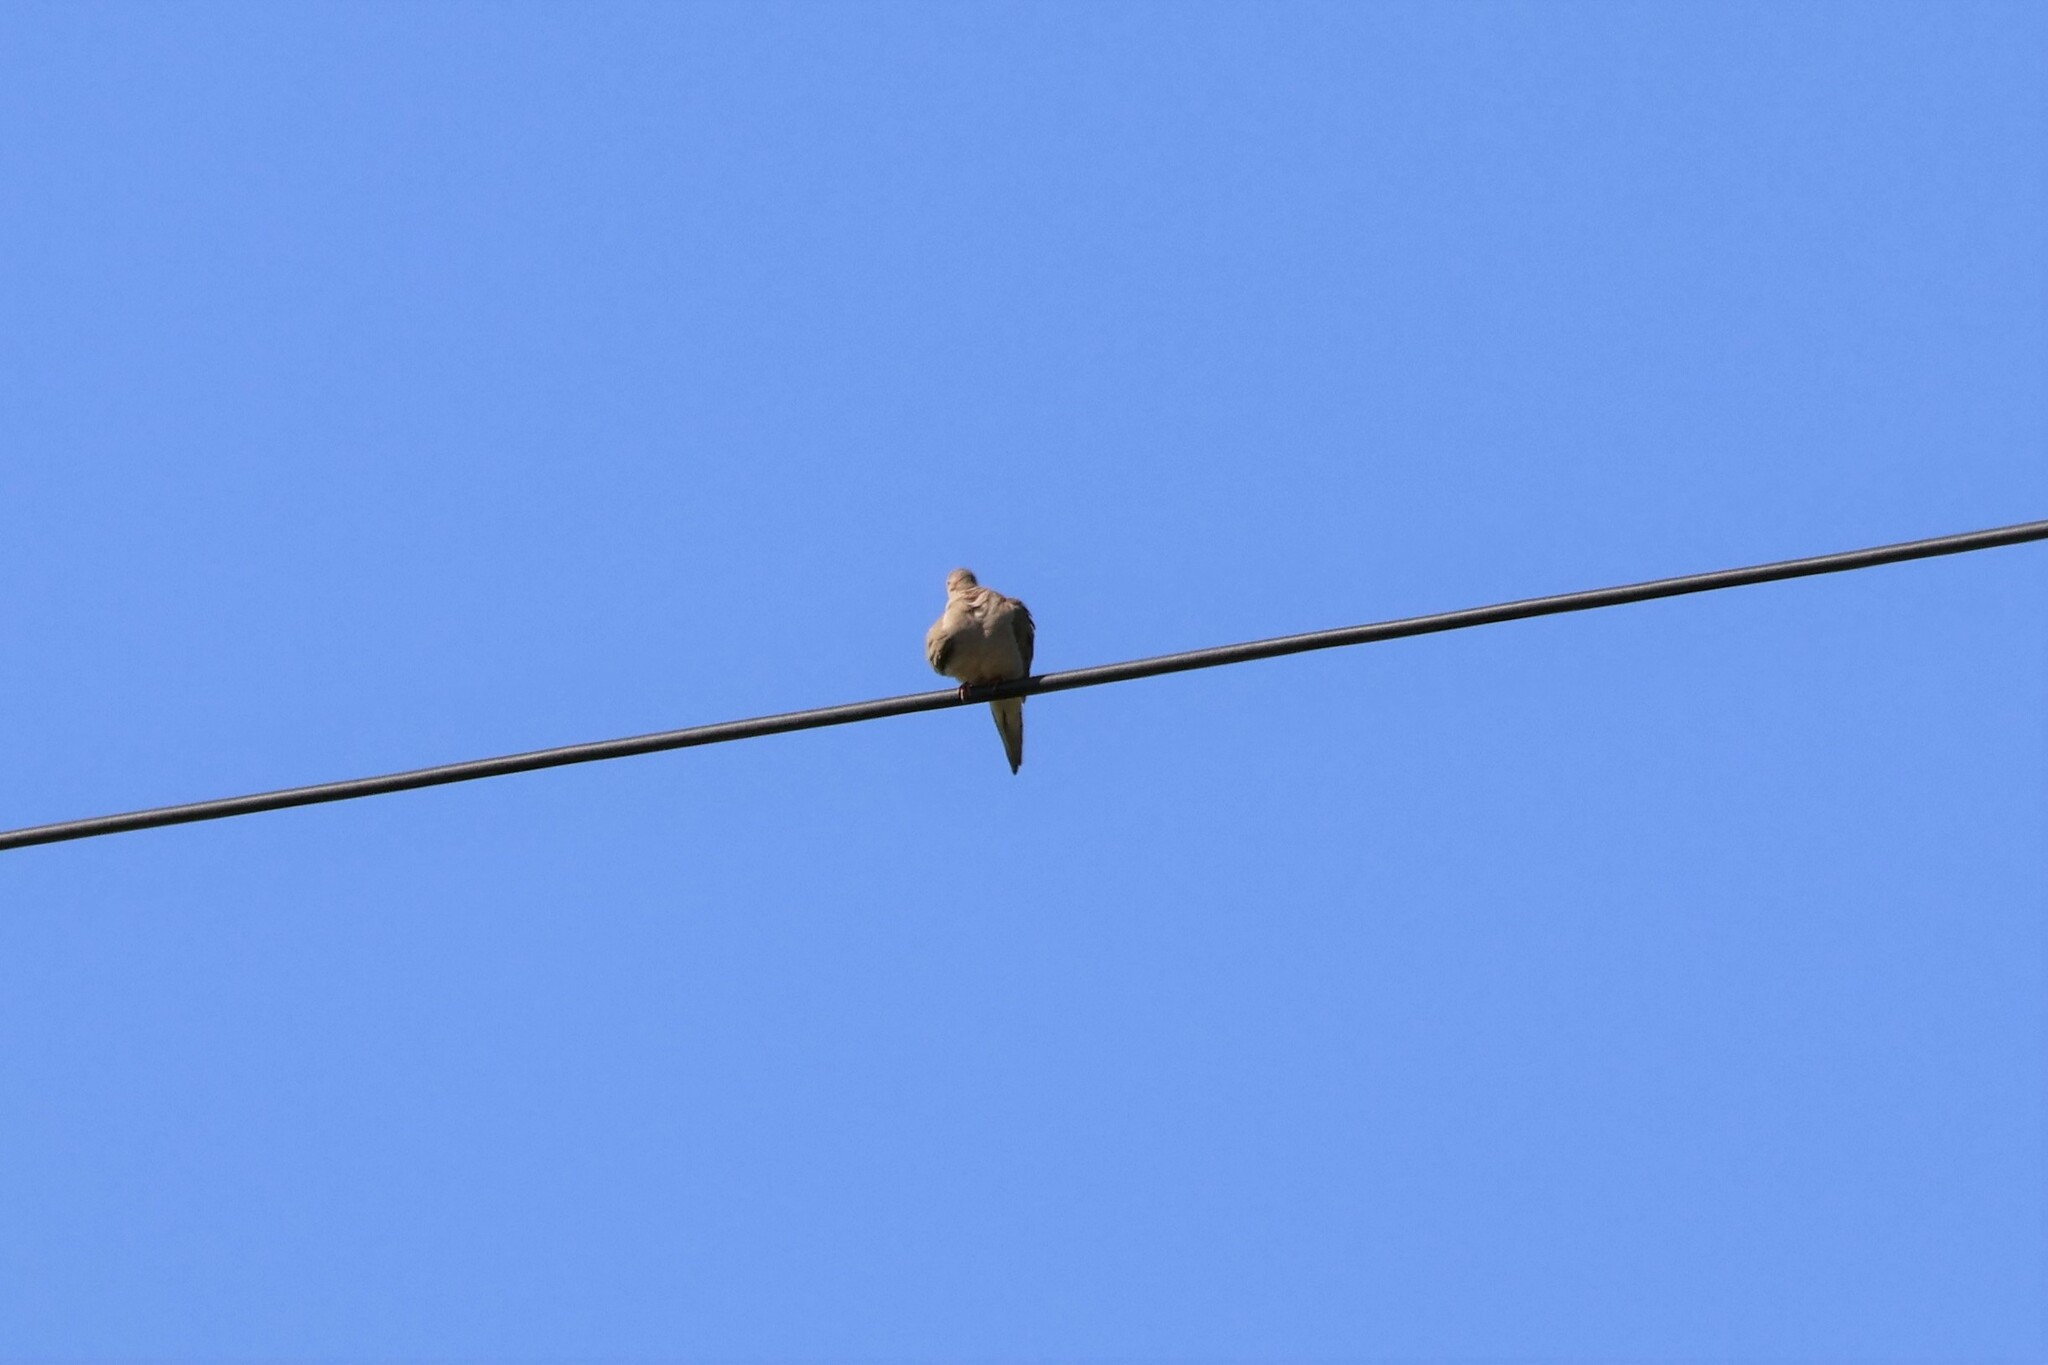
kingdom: Animalia
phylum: Chordata
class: Aves
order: Columbiformes
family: Columbidae
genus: Zenaida
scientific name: Zenaida macroura
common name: Mourning dove
